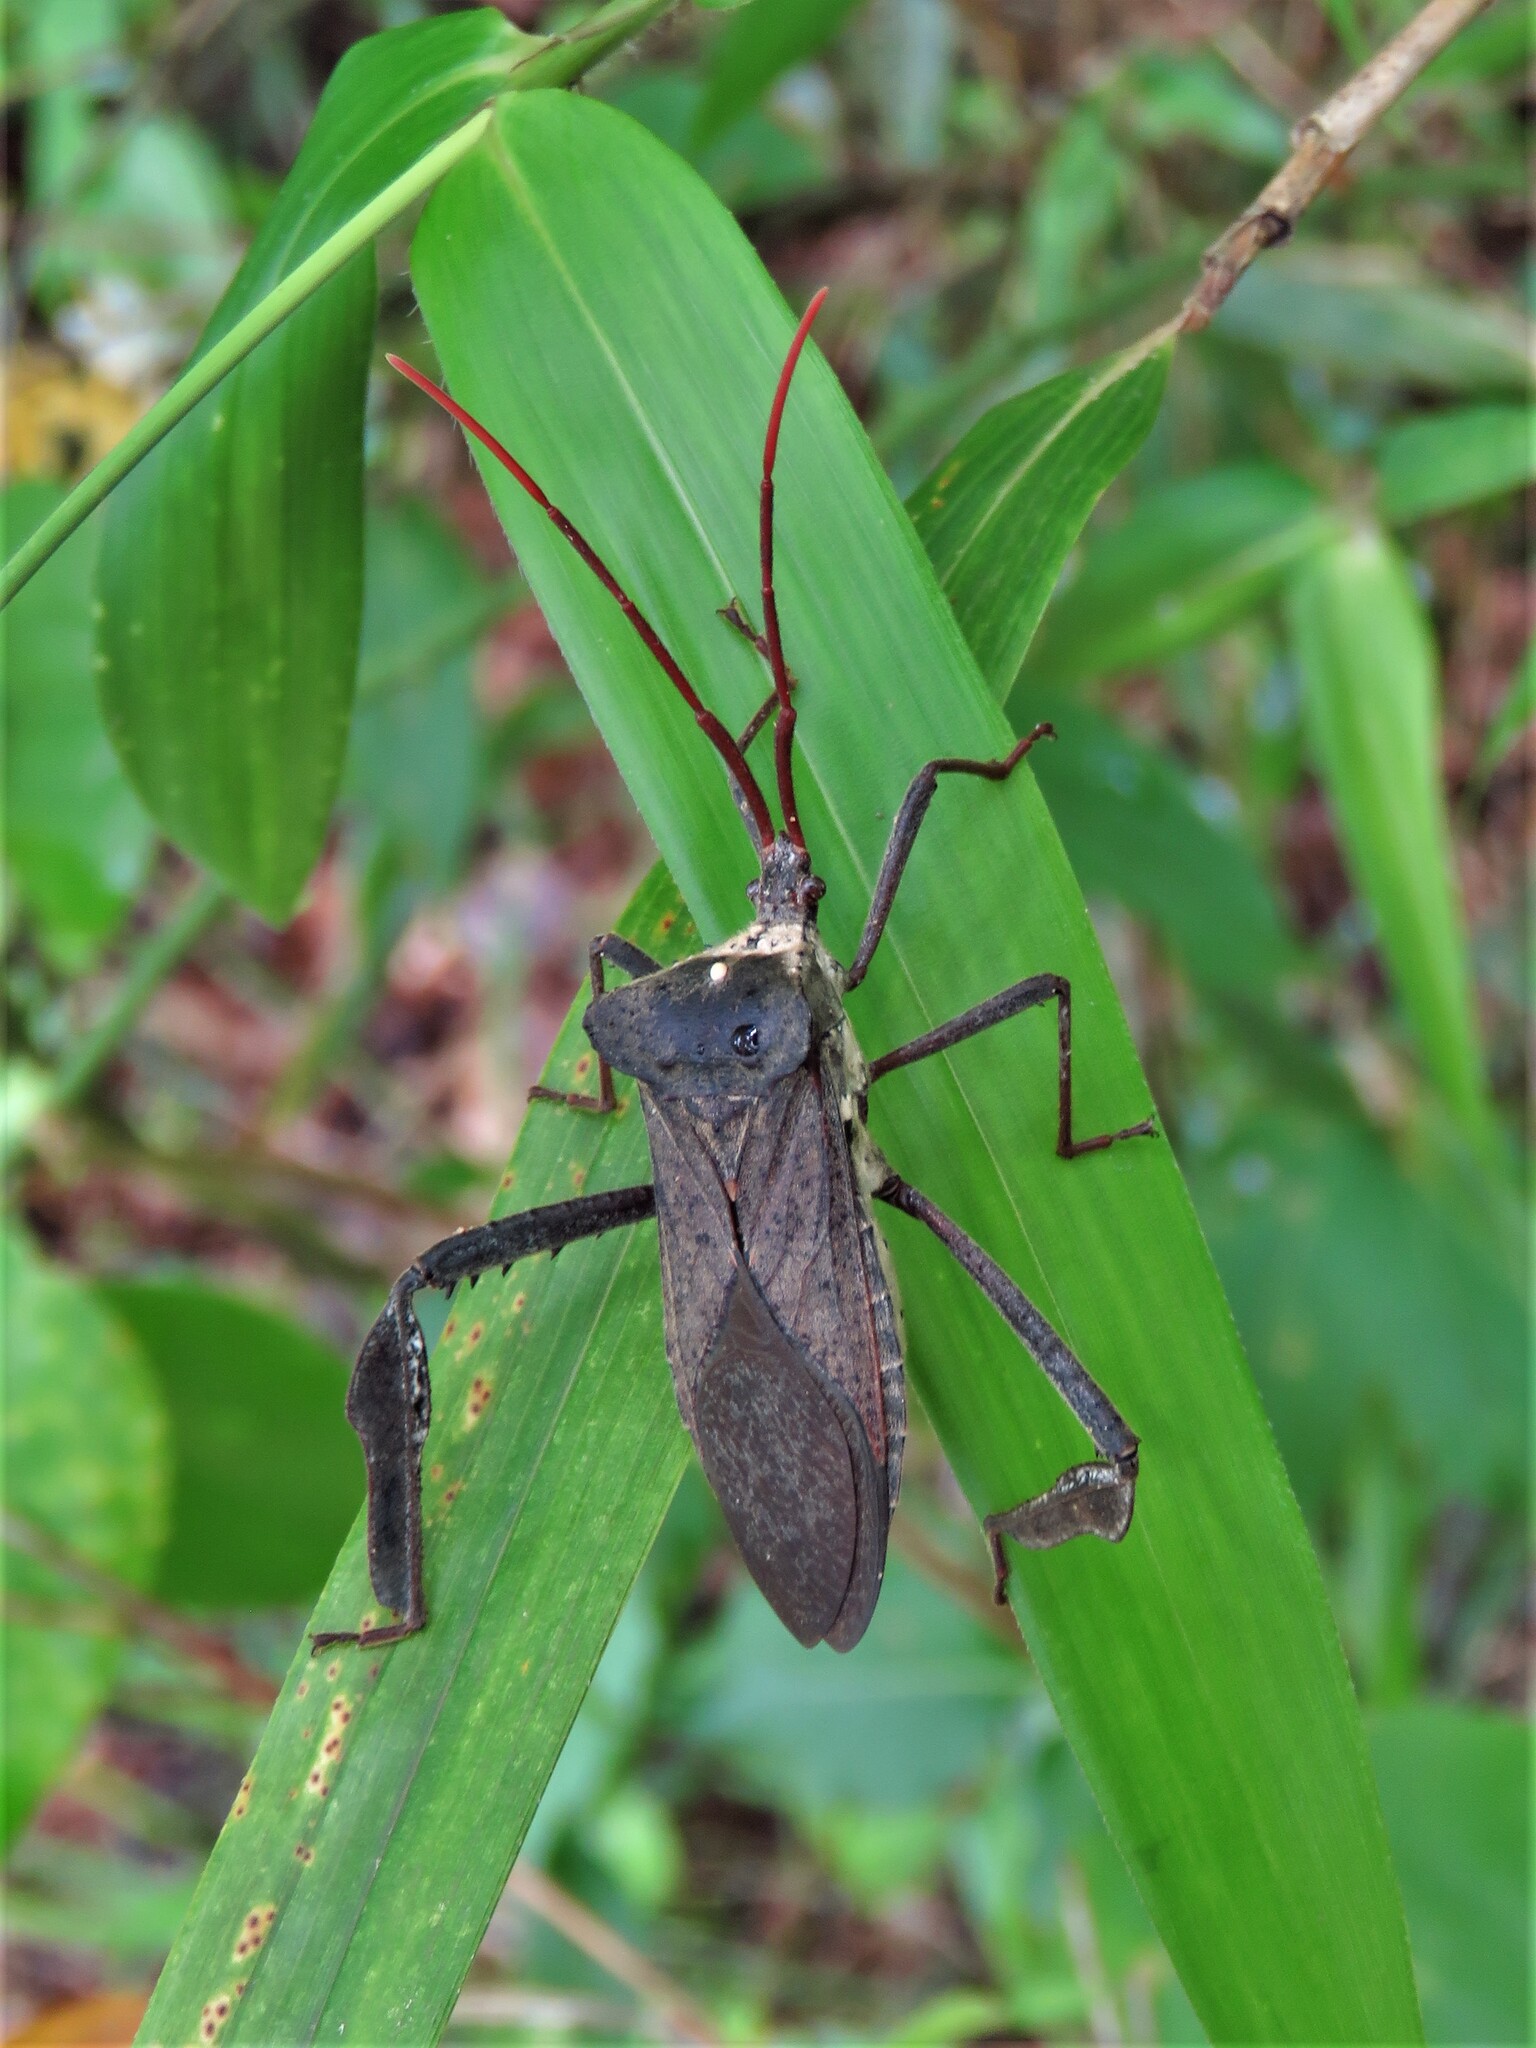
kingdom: Animalia
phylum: Arthropoda
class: Insecta
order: Hemiptera
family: Coreidae
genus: Acanthocephala
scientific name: Acanthocephala declivis
